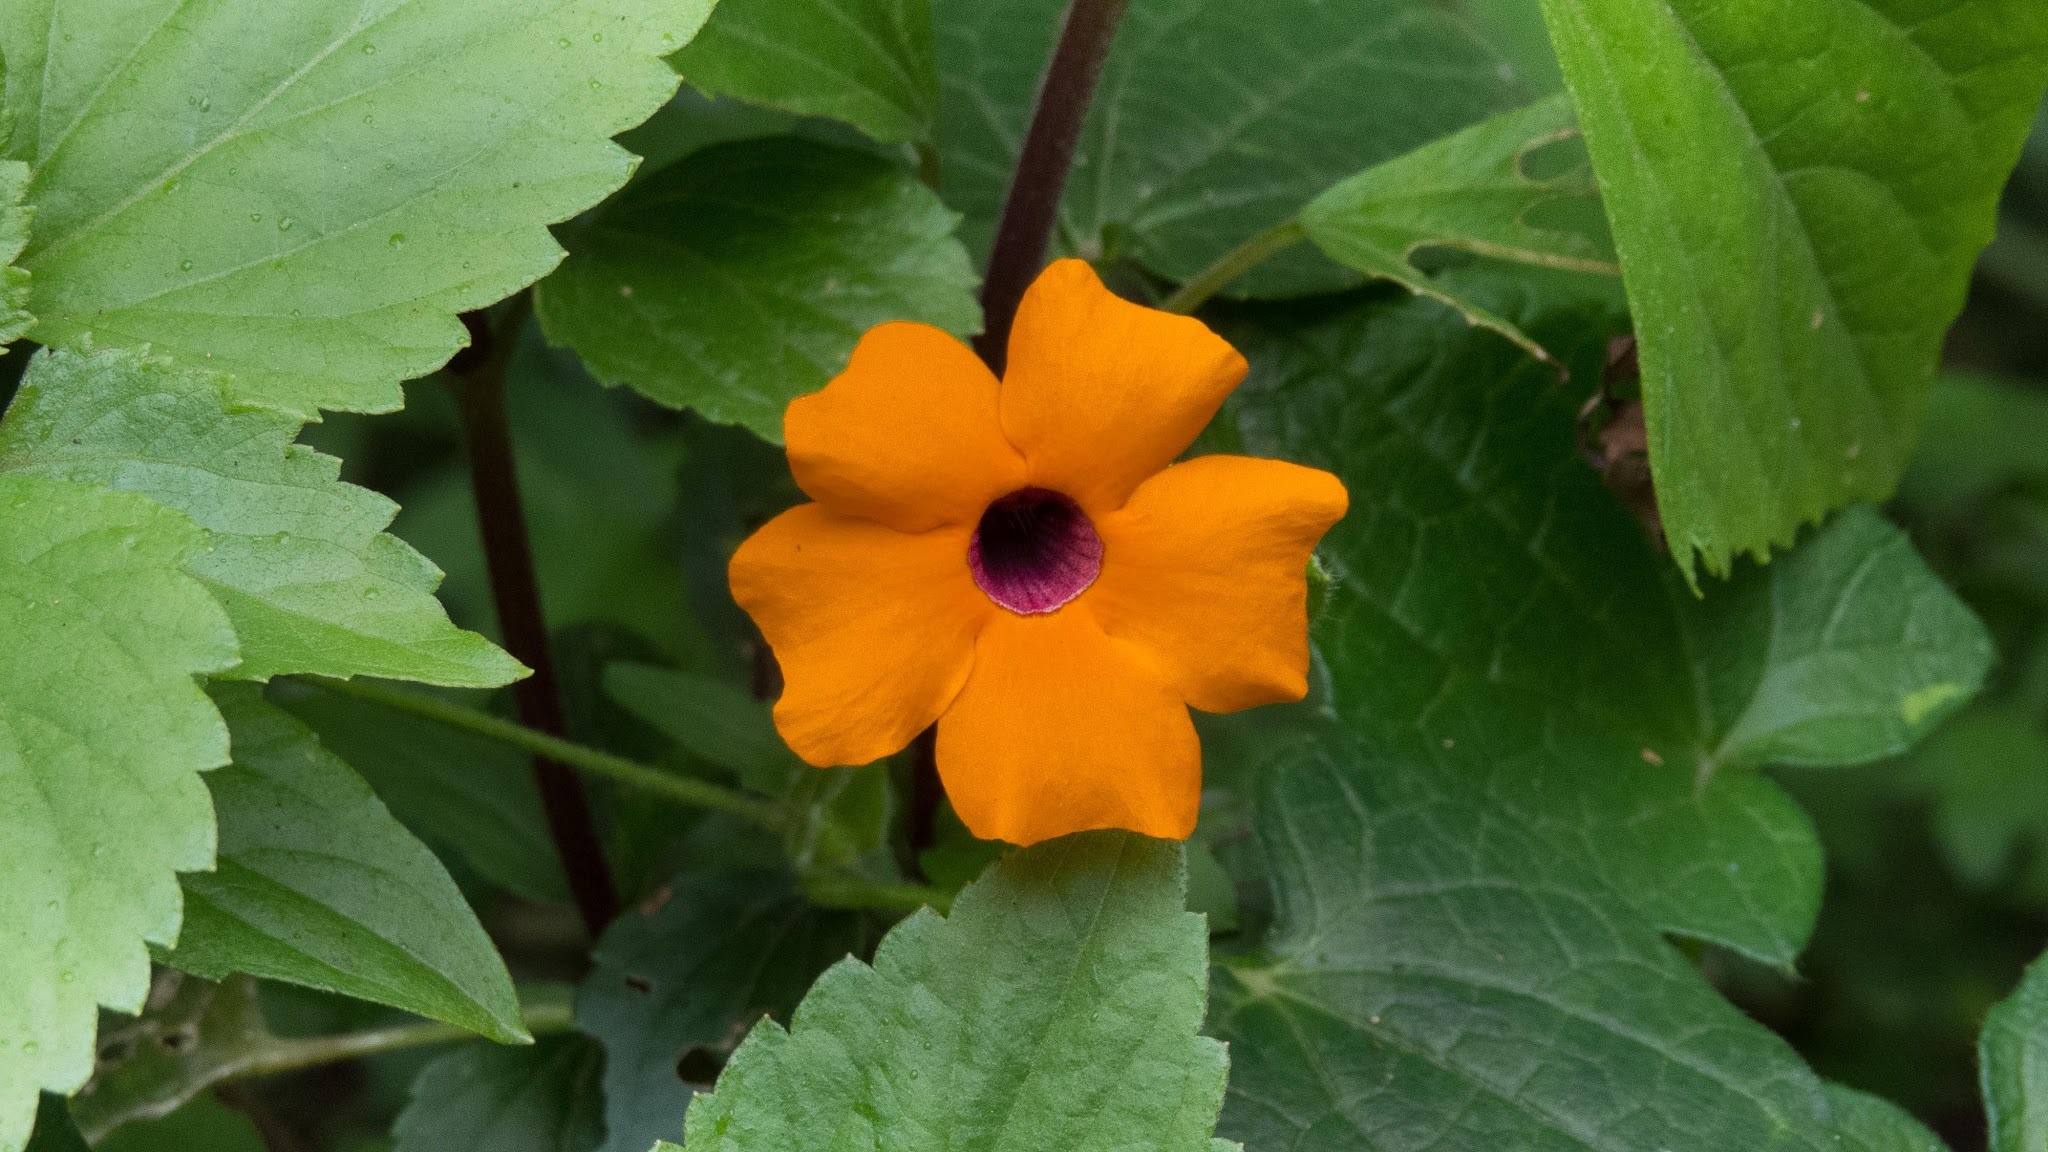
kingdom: Plantae
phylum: Tracheophyta
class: Magnoliopsida
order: Lamiales
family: Acanthaceae
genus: Thunbergia
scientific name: Thunbergia alata
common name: Blackeyed susan vine
